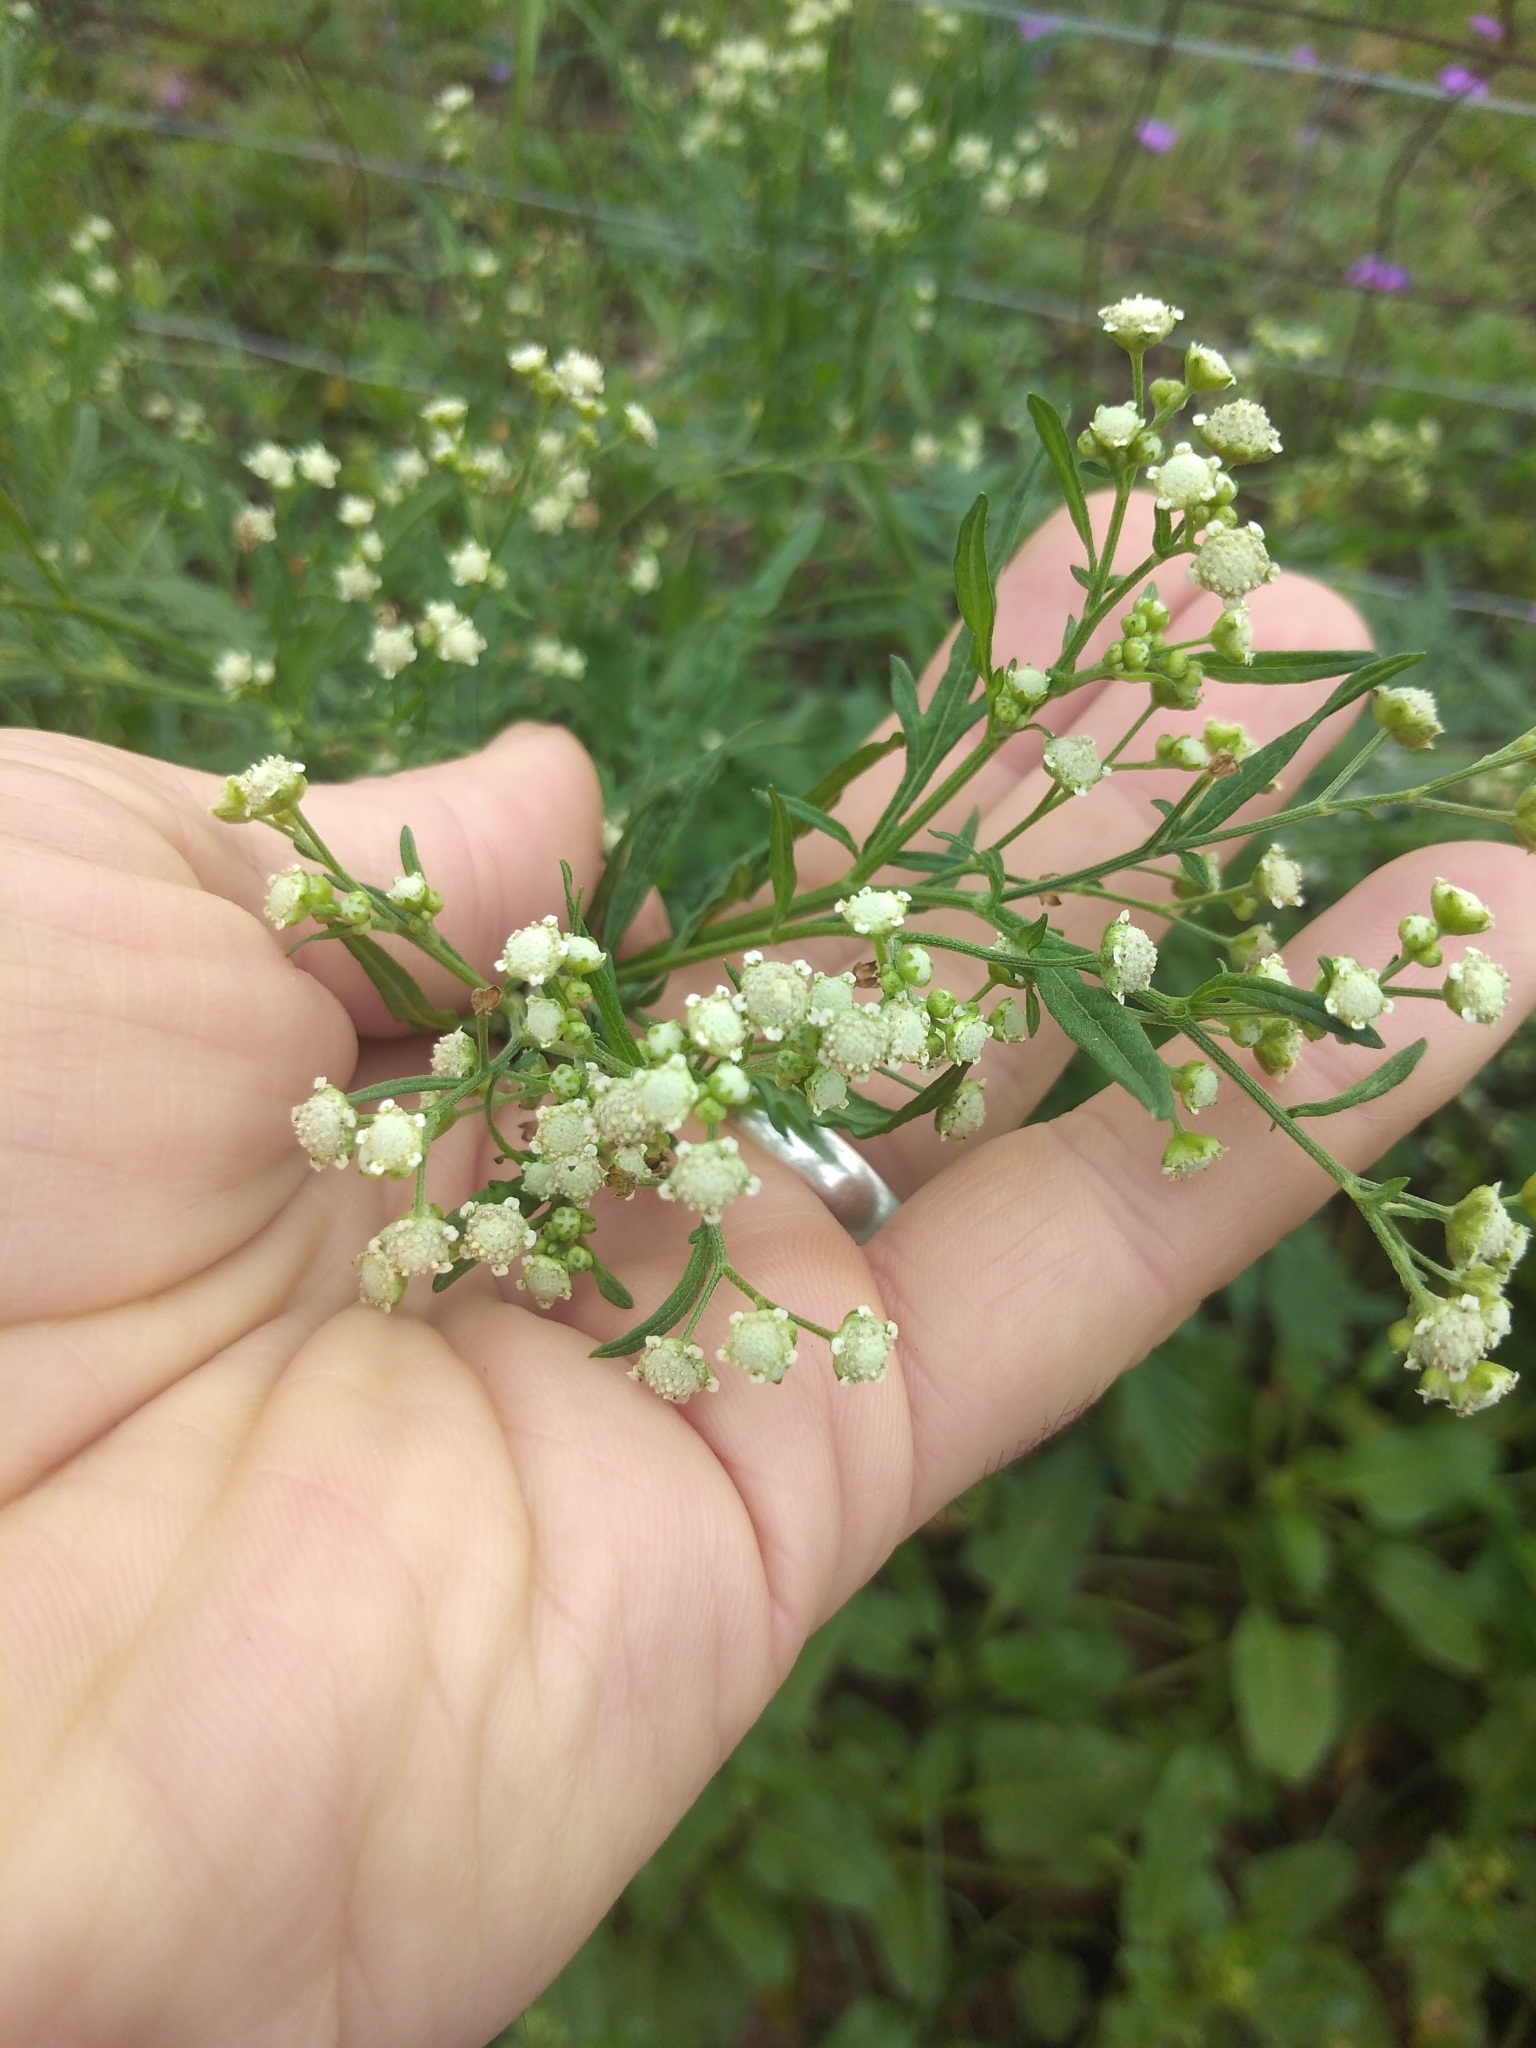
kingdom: Plantae
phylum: Tracheophyta
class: Magnoliopsida
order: Asterales
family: Asteraceae
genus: Parthenium
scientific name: Parthenium hysterophorus
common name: Santa maria feverfew
